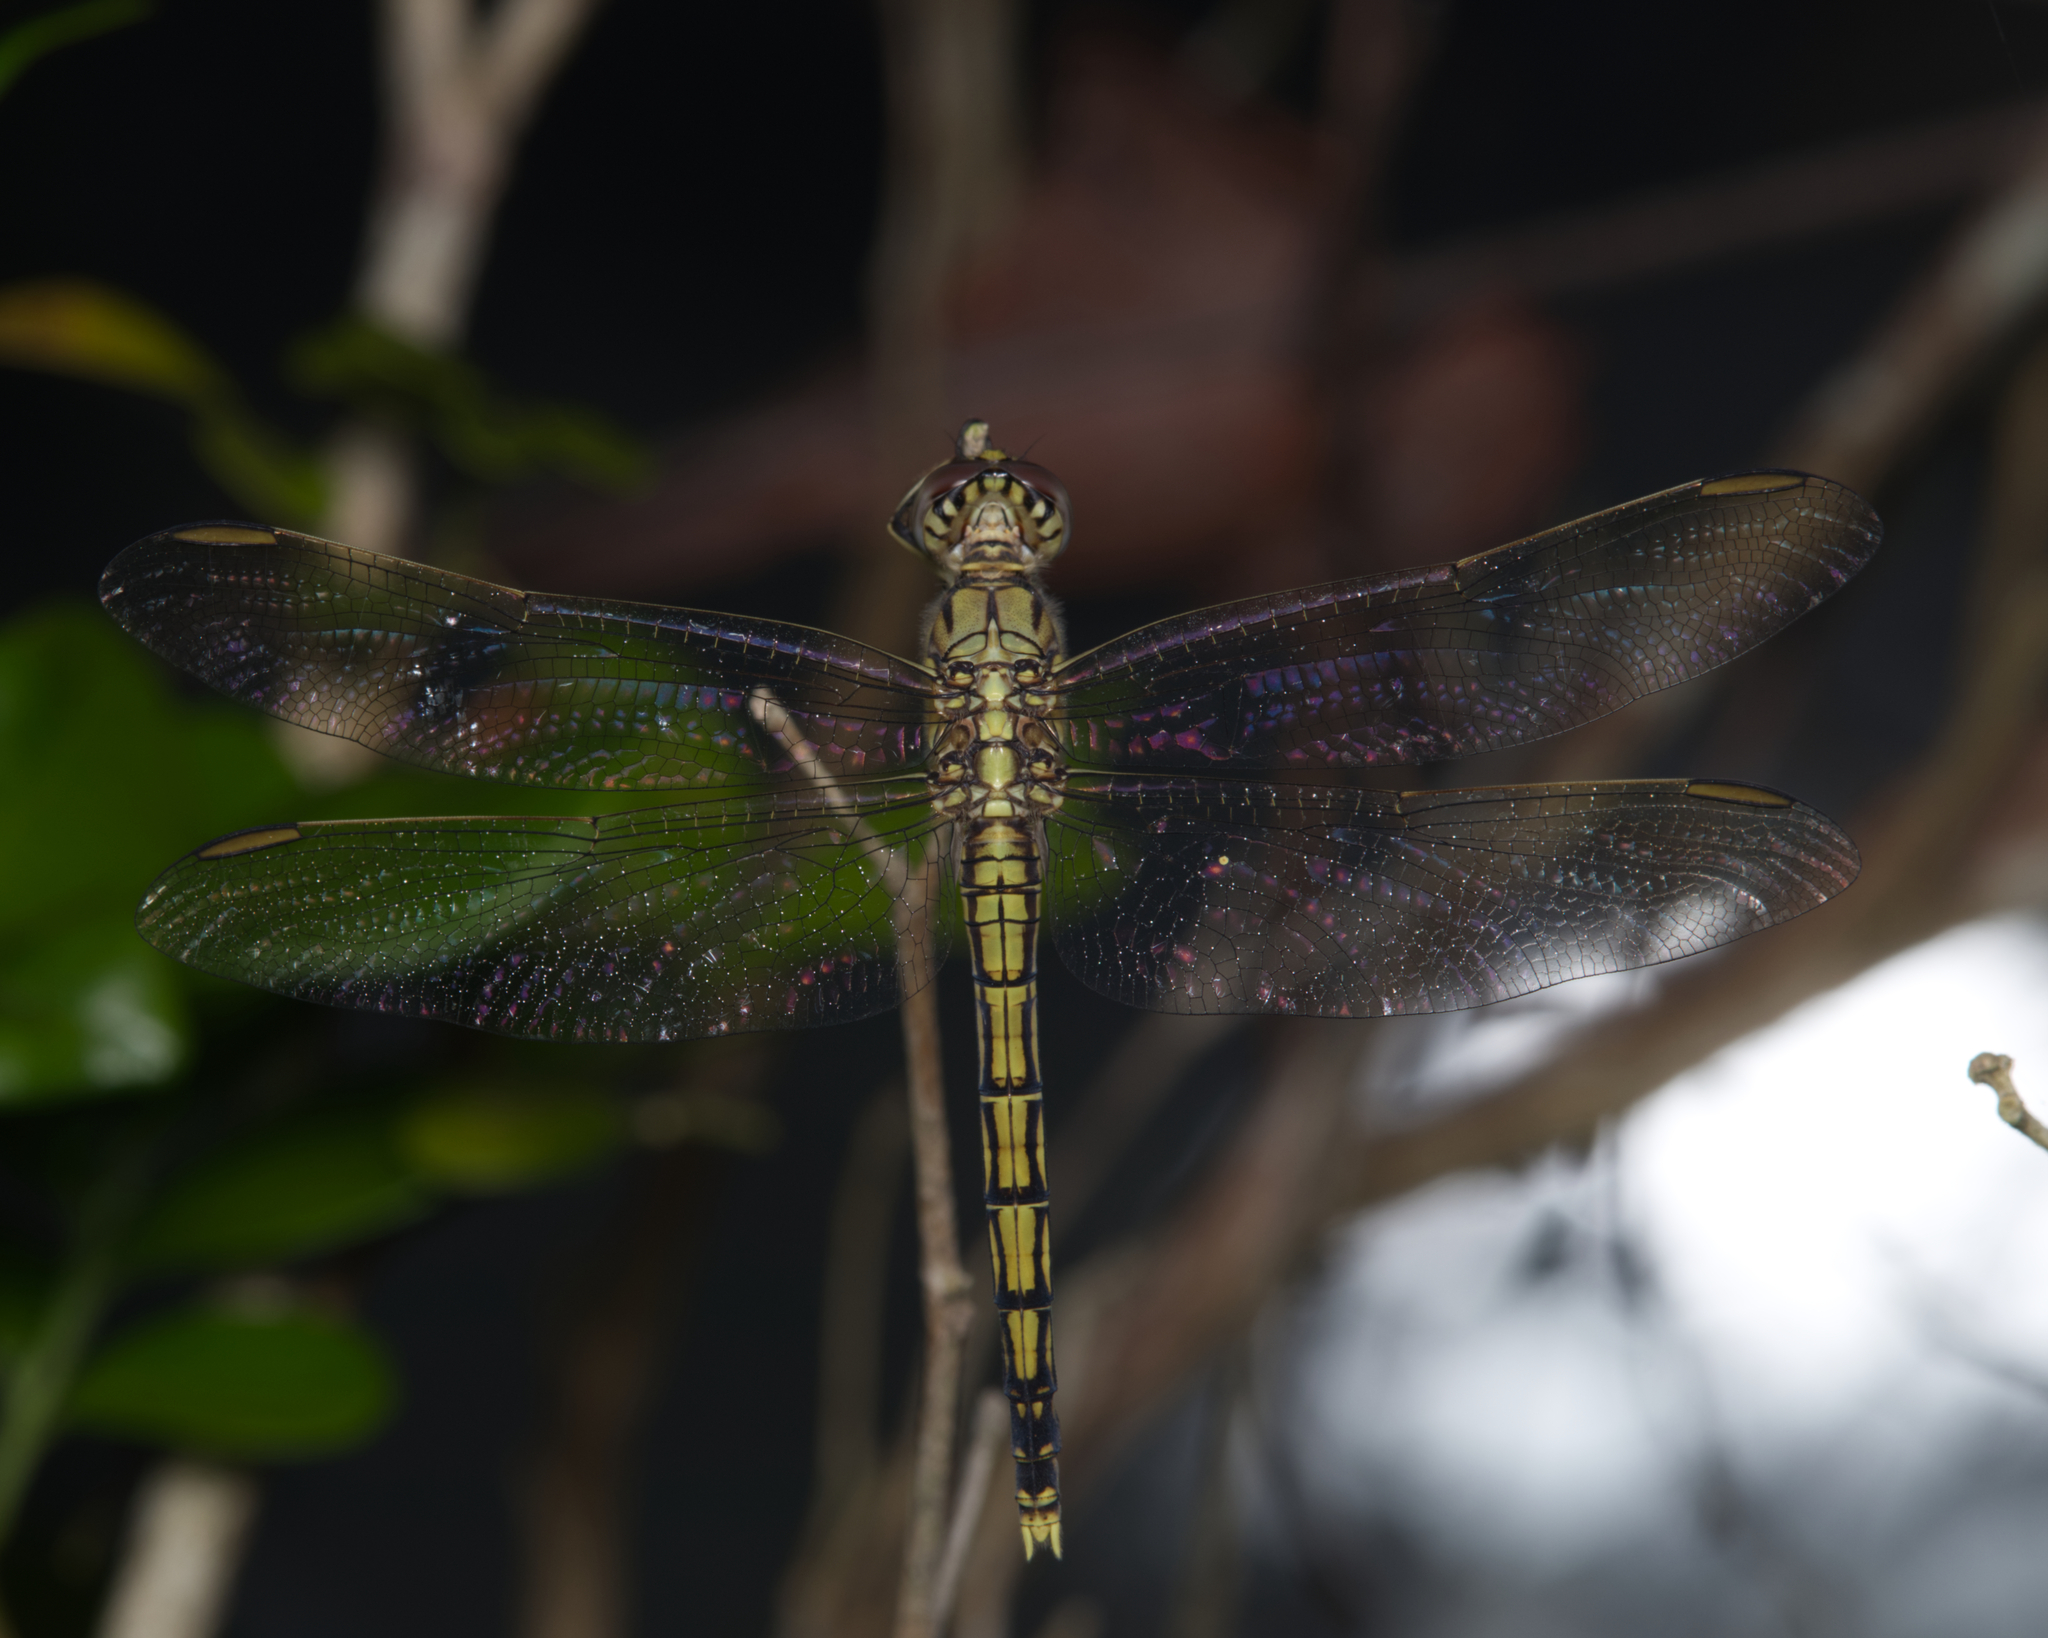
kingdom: Animalia
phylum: Arthropoda
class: Insecta
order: Odonata
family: Libellulidae
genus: Orthetrum
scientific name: Orthetrum caledonicum
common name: Blue skimmer
